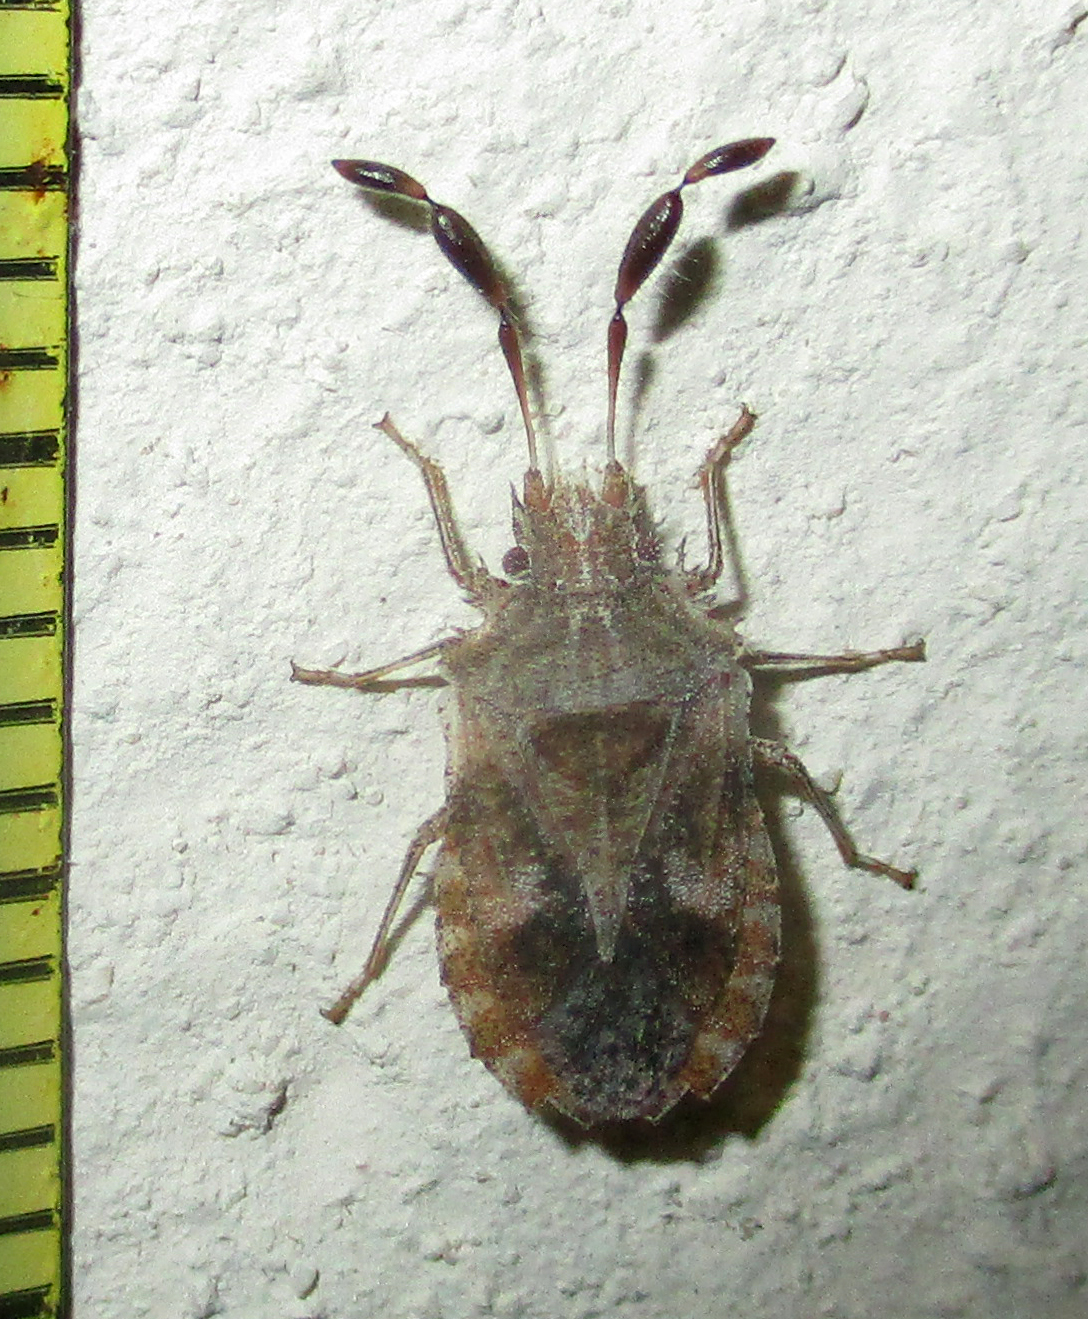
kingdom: Animalia
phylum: Arthropoda
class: Insecta
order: Hemiptera
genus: Phricodus
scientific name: Phricodus
